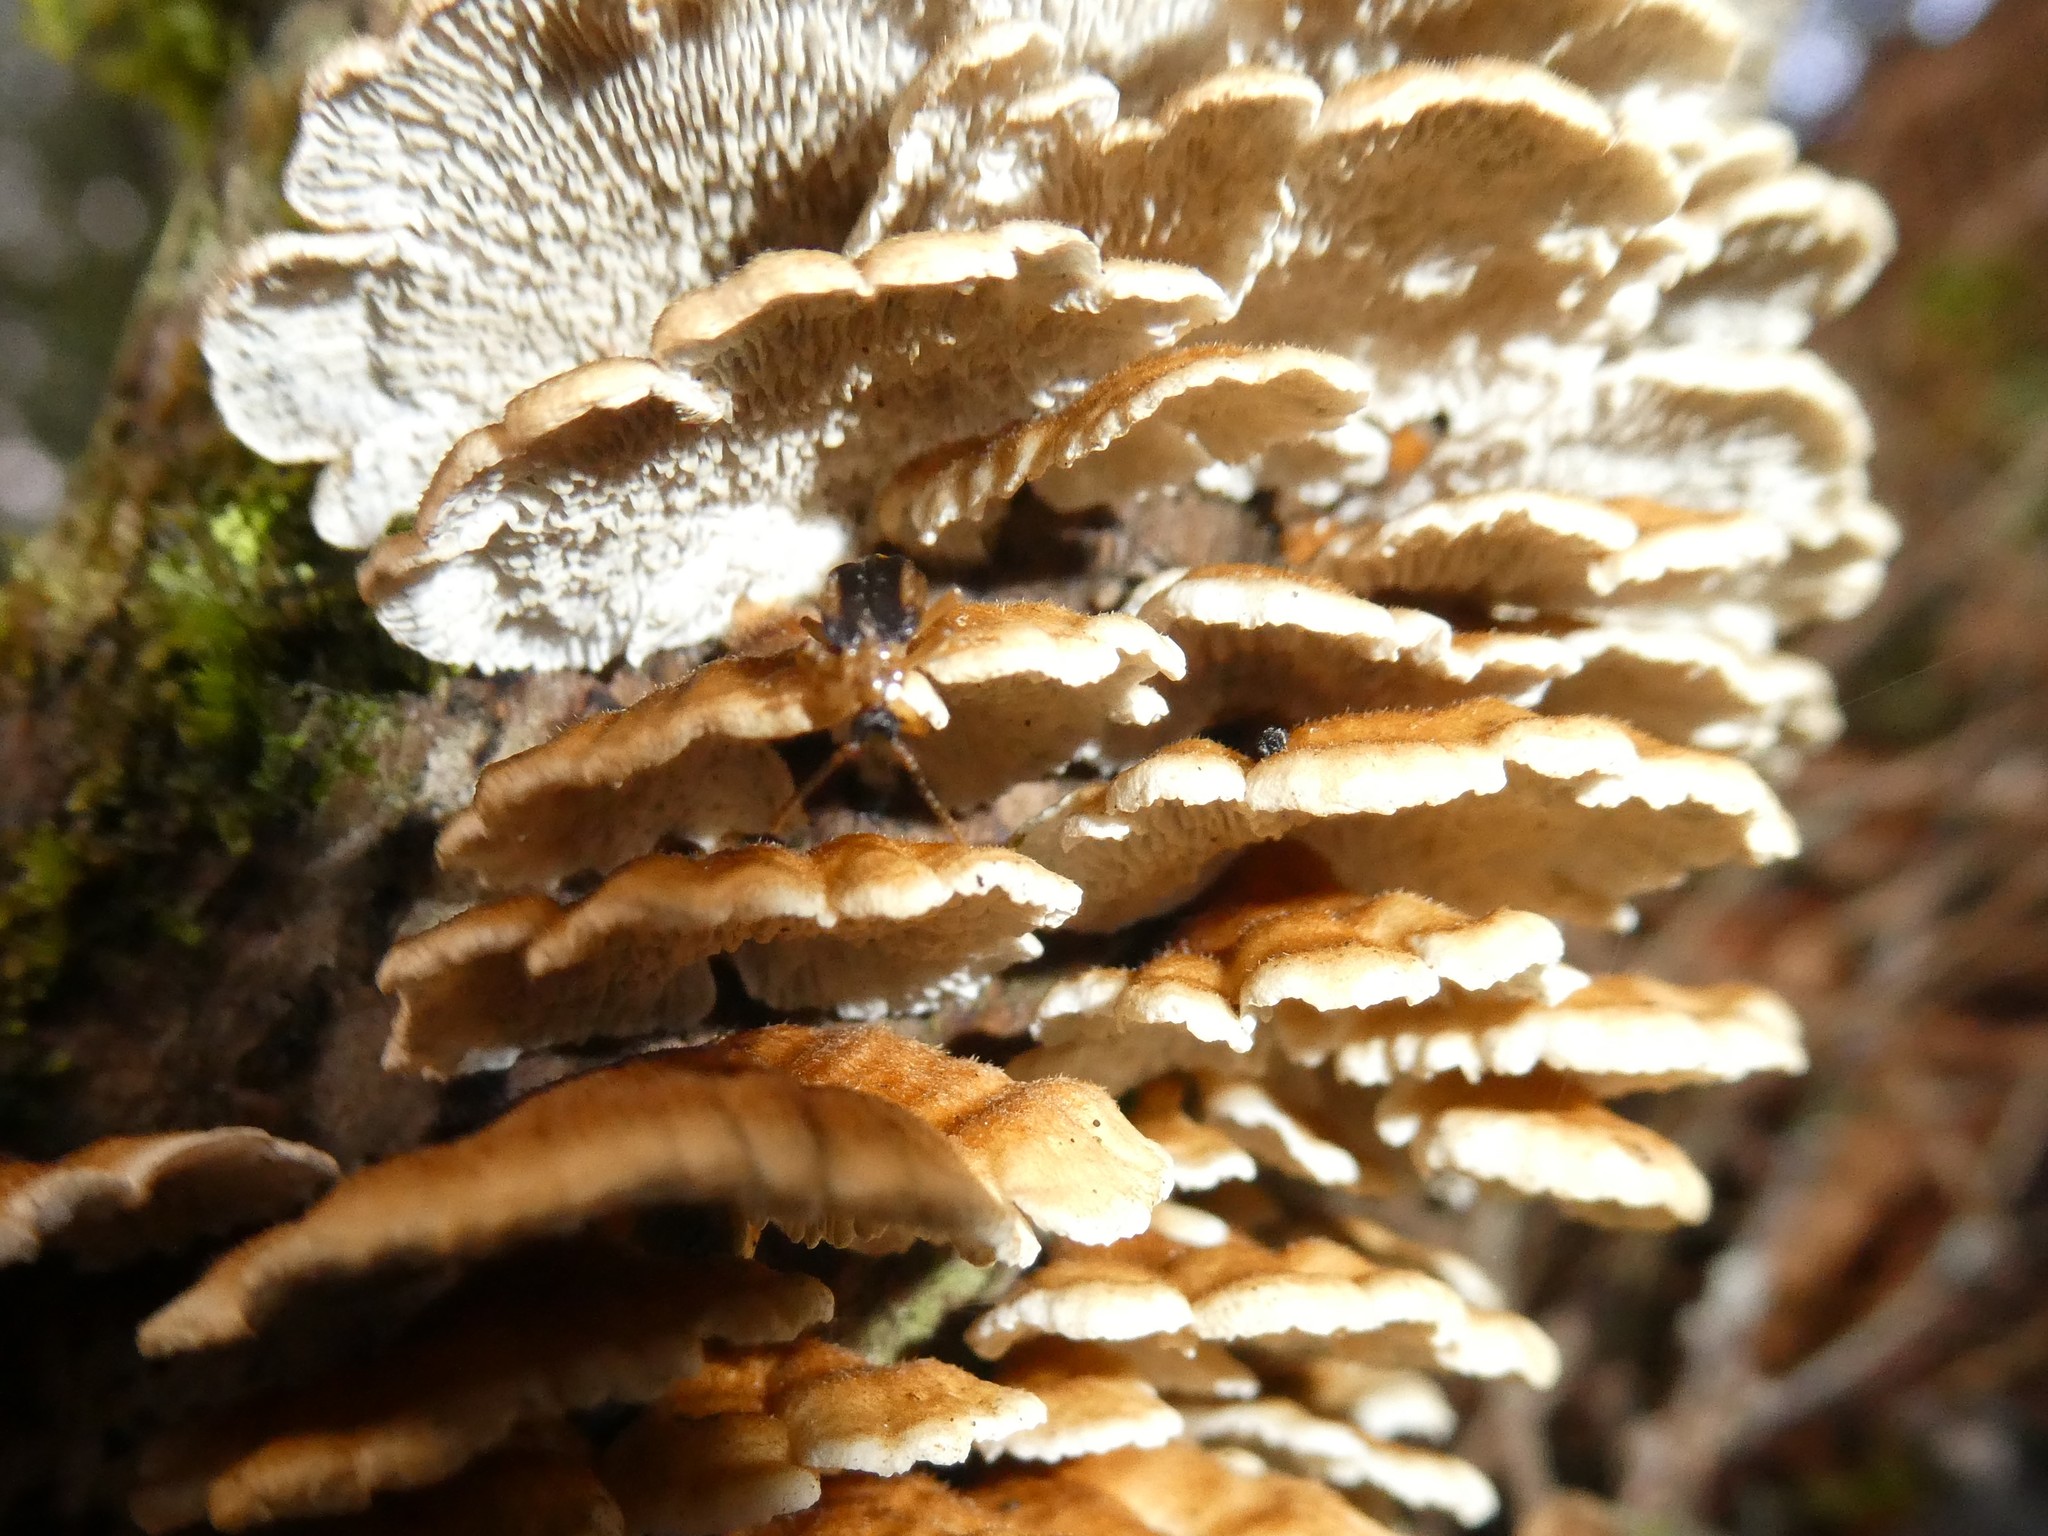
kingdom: Fungi
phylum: Basidiomycota
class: Agaricomycetes
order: Amylocorticiales
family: Amylocorticiaceae
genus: Plicaturopsis
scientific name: Plicaturopsis crispa
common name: Crimped gill
